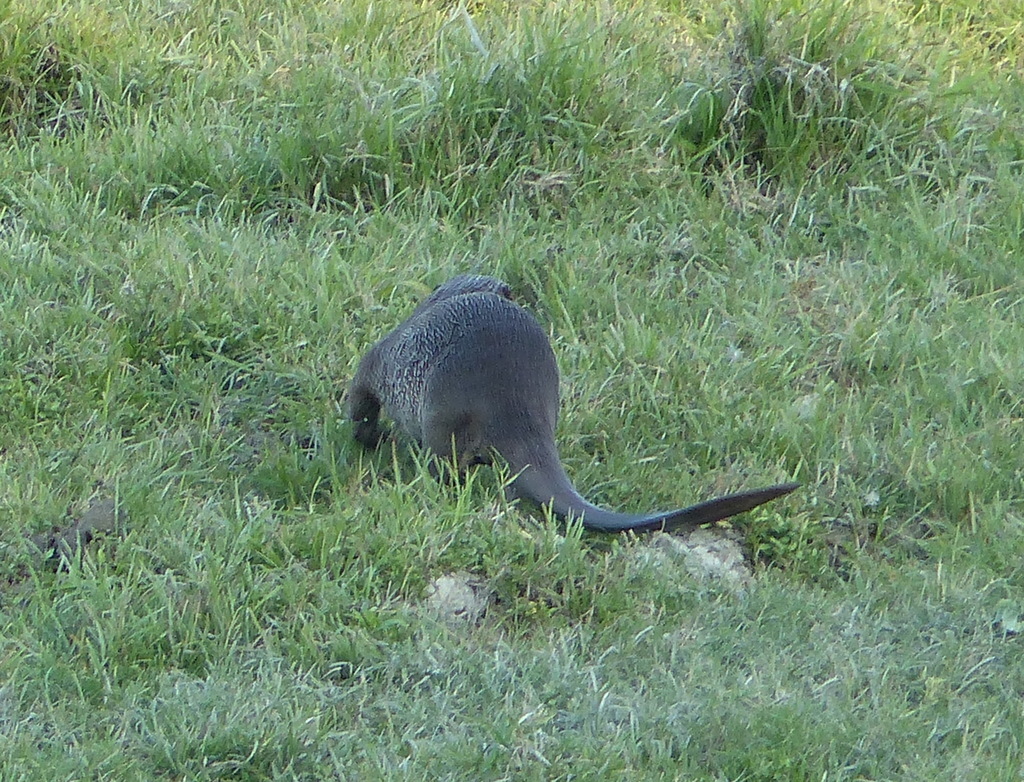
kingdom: Animalia
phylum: Chordata
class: Mammalia
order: Carnivora
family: Mustelidae
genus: Lutrogale
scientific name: Lutrogale perspicillata
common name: Smooth-coated otter
